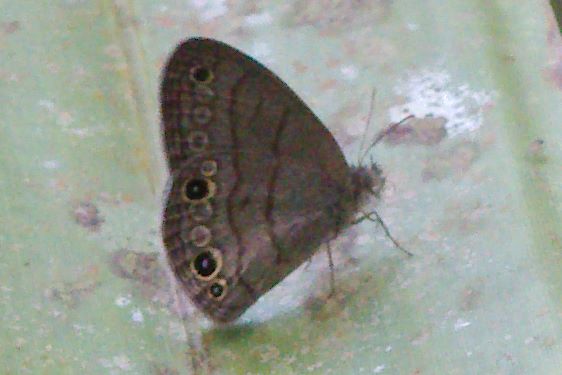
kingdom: Animalia
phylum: Arthropoda
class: Insecta
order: Lepidoptera
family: Nymphalidae
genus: Hermeuptychia
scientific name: Hermeuptychia hermes
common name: Hermes satyr
